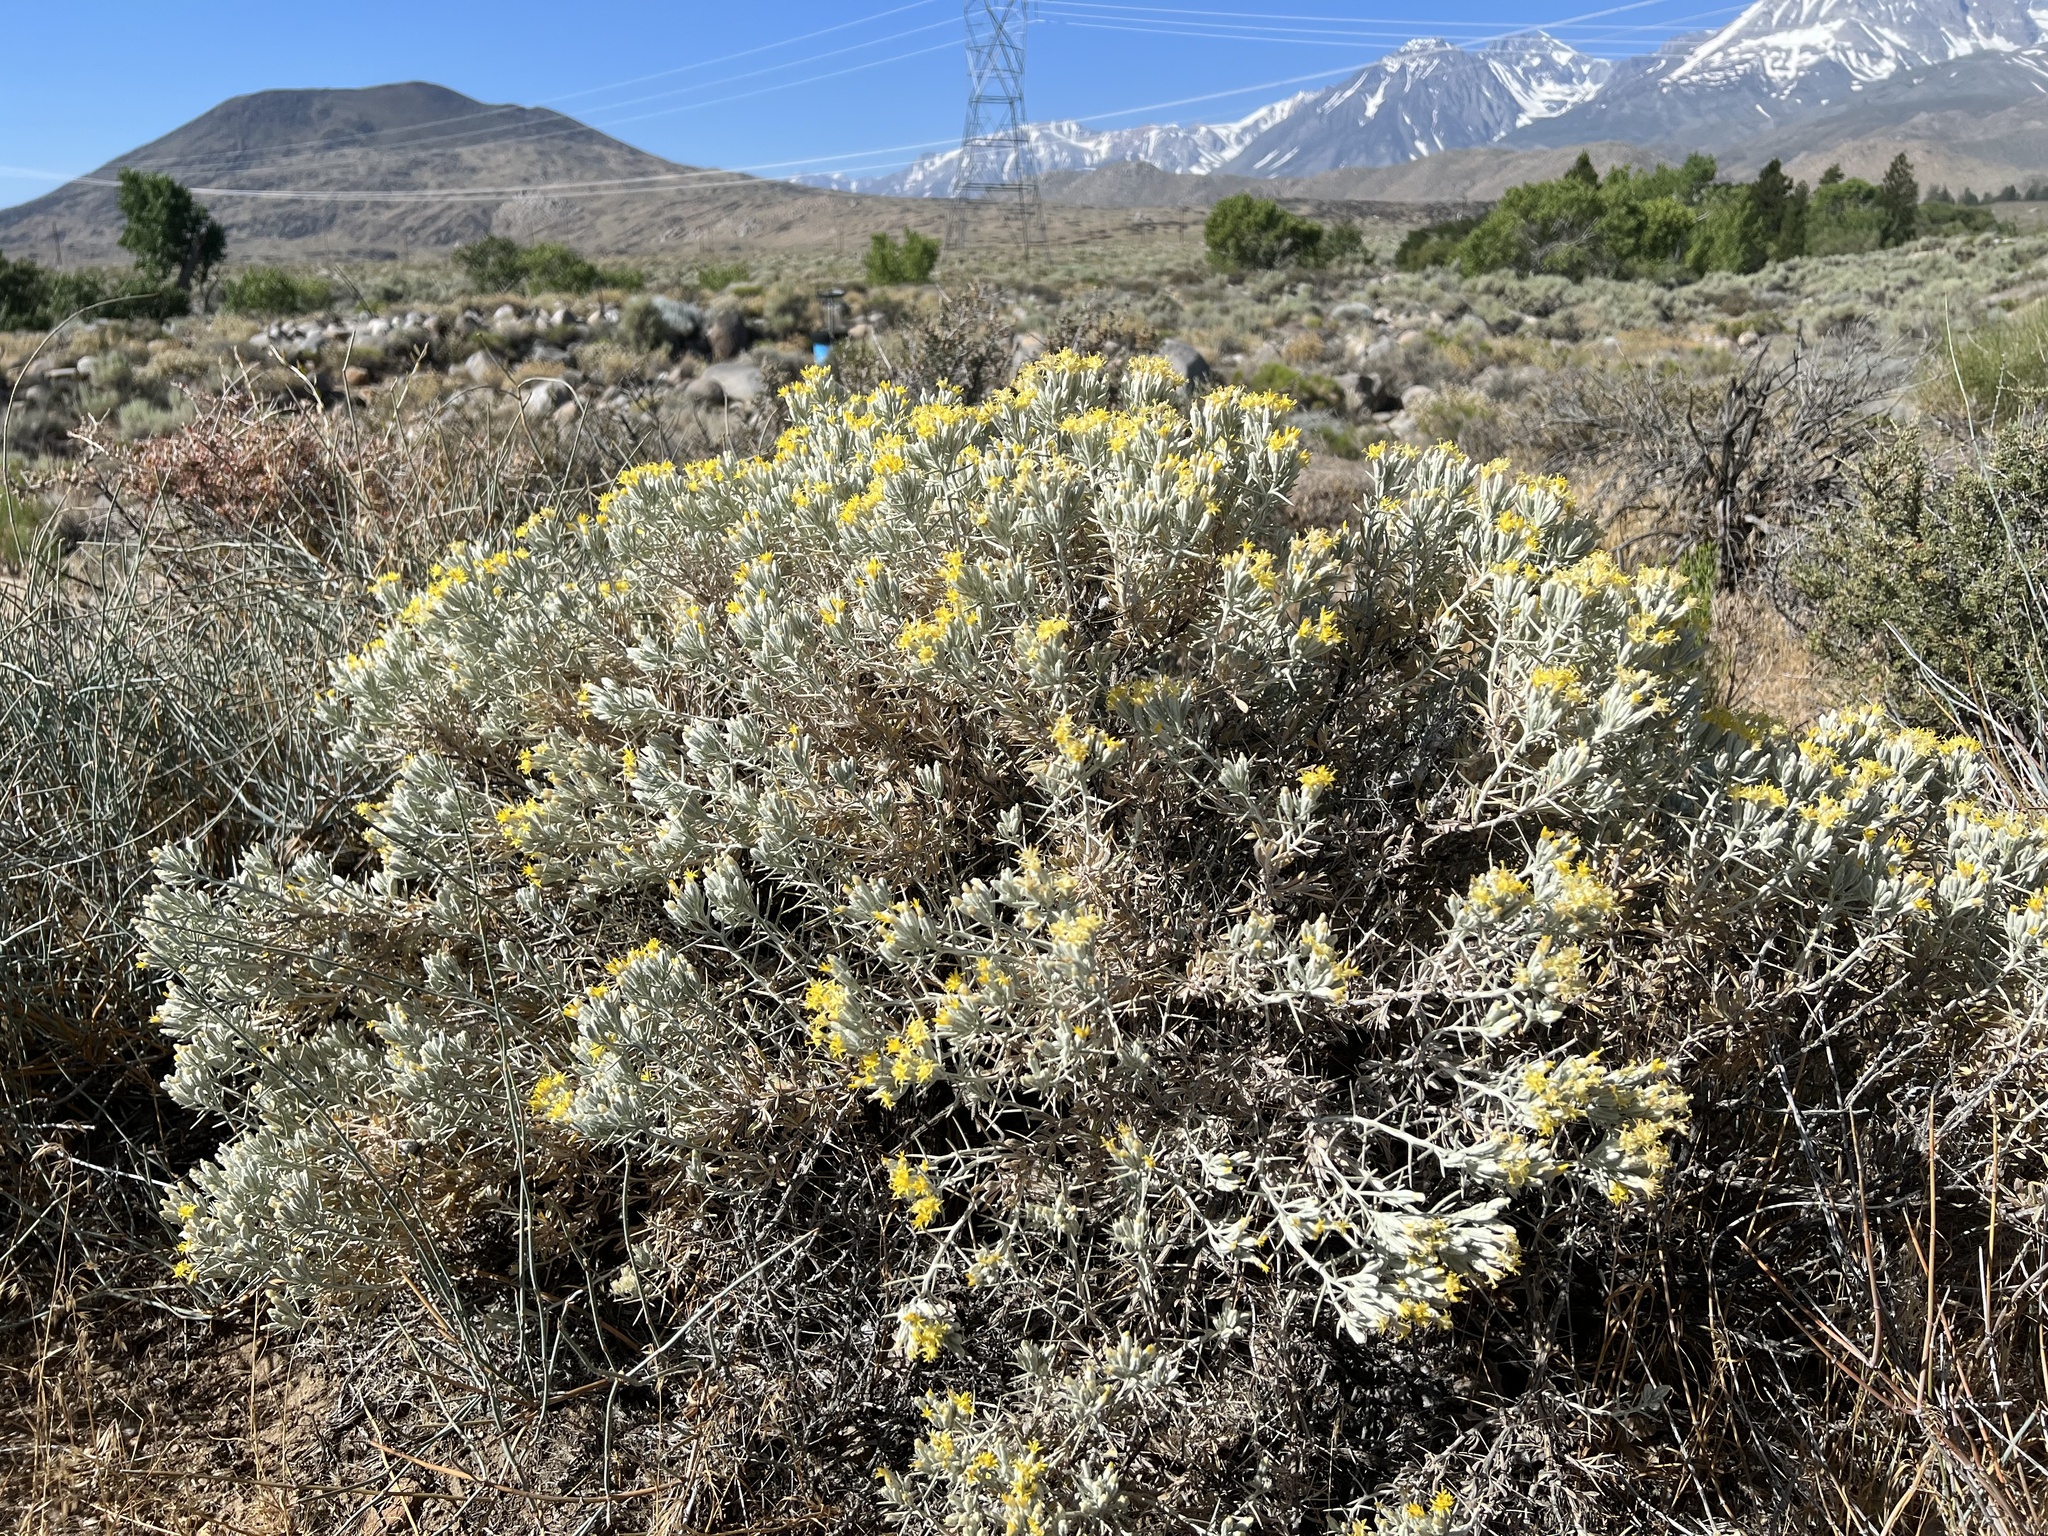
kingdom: Plantae
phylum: Tracheophyta
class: Magnoliopsida
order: Asterales
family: Asteraceae
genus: Tetradymia
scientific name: Tetradymia stenolepis
